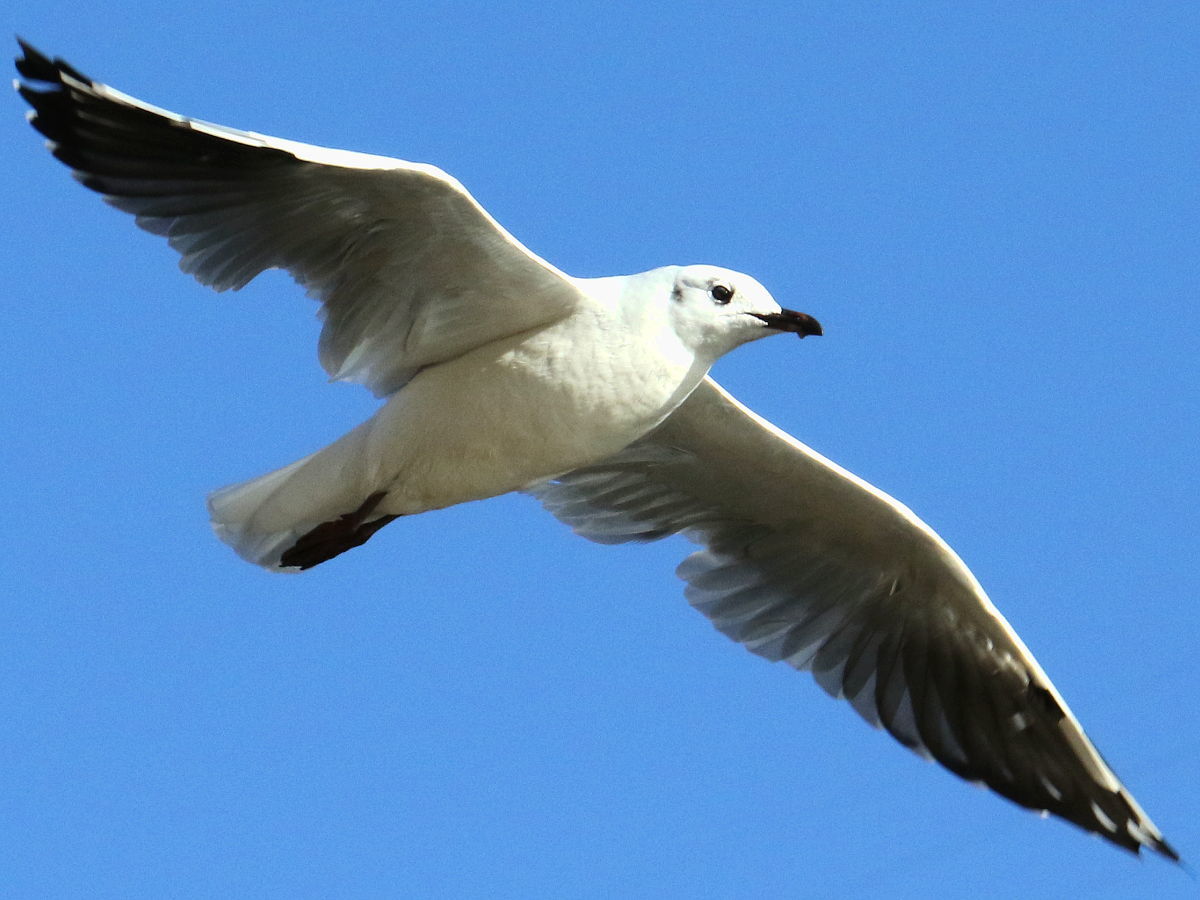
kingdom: Animalia
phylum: Chordata
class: Aves
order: Charadriiformes
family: Laridae
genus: Chroicocephalus
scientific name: Chroicocephalus serranus
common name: Andean gull
